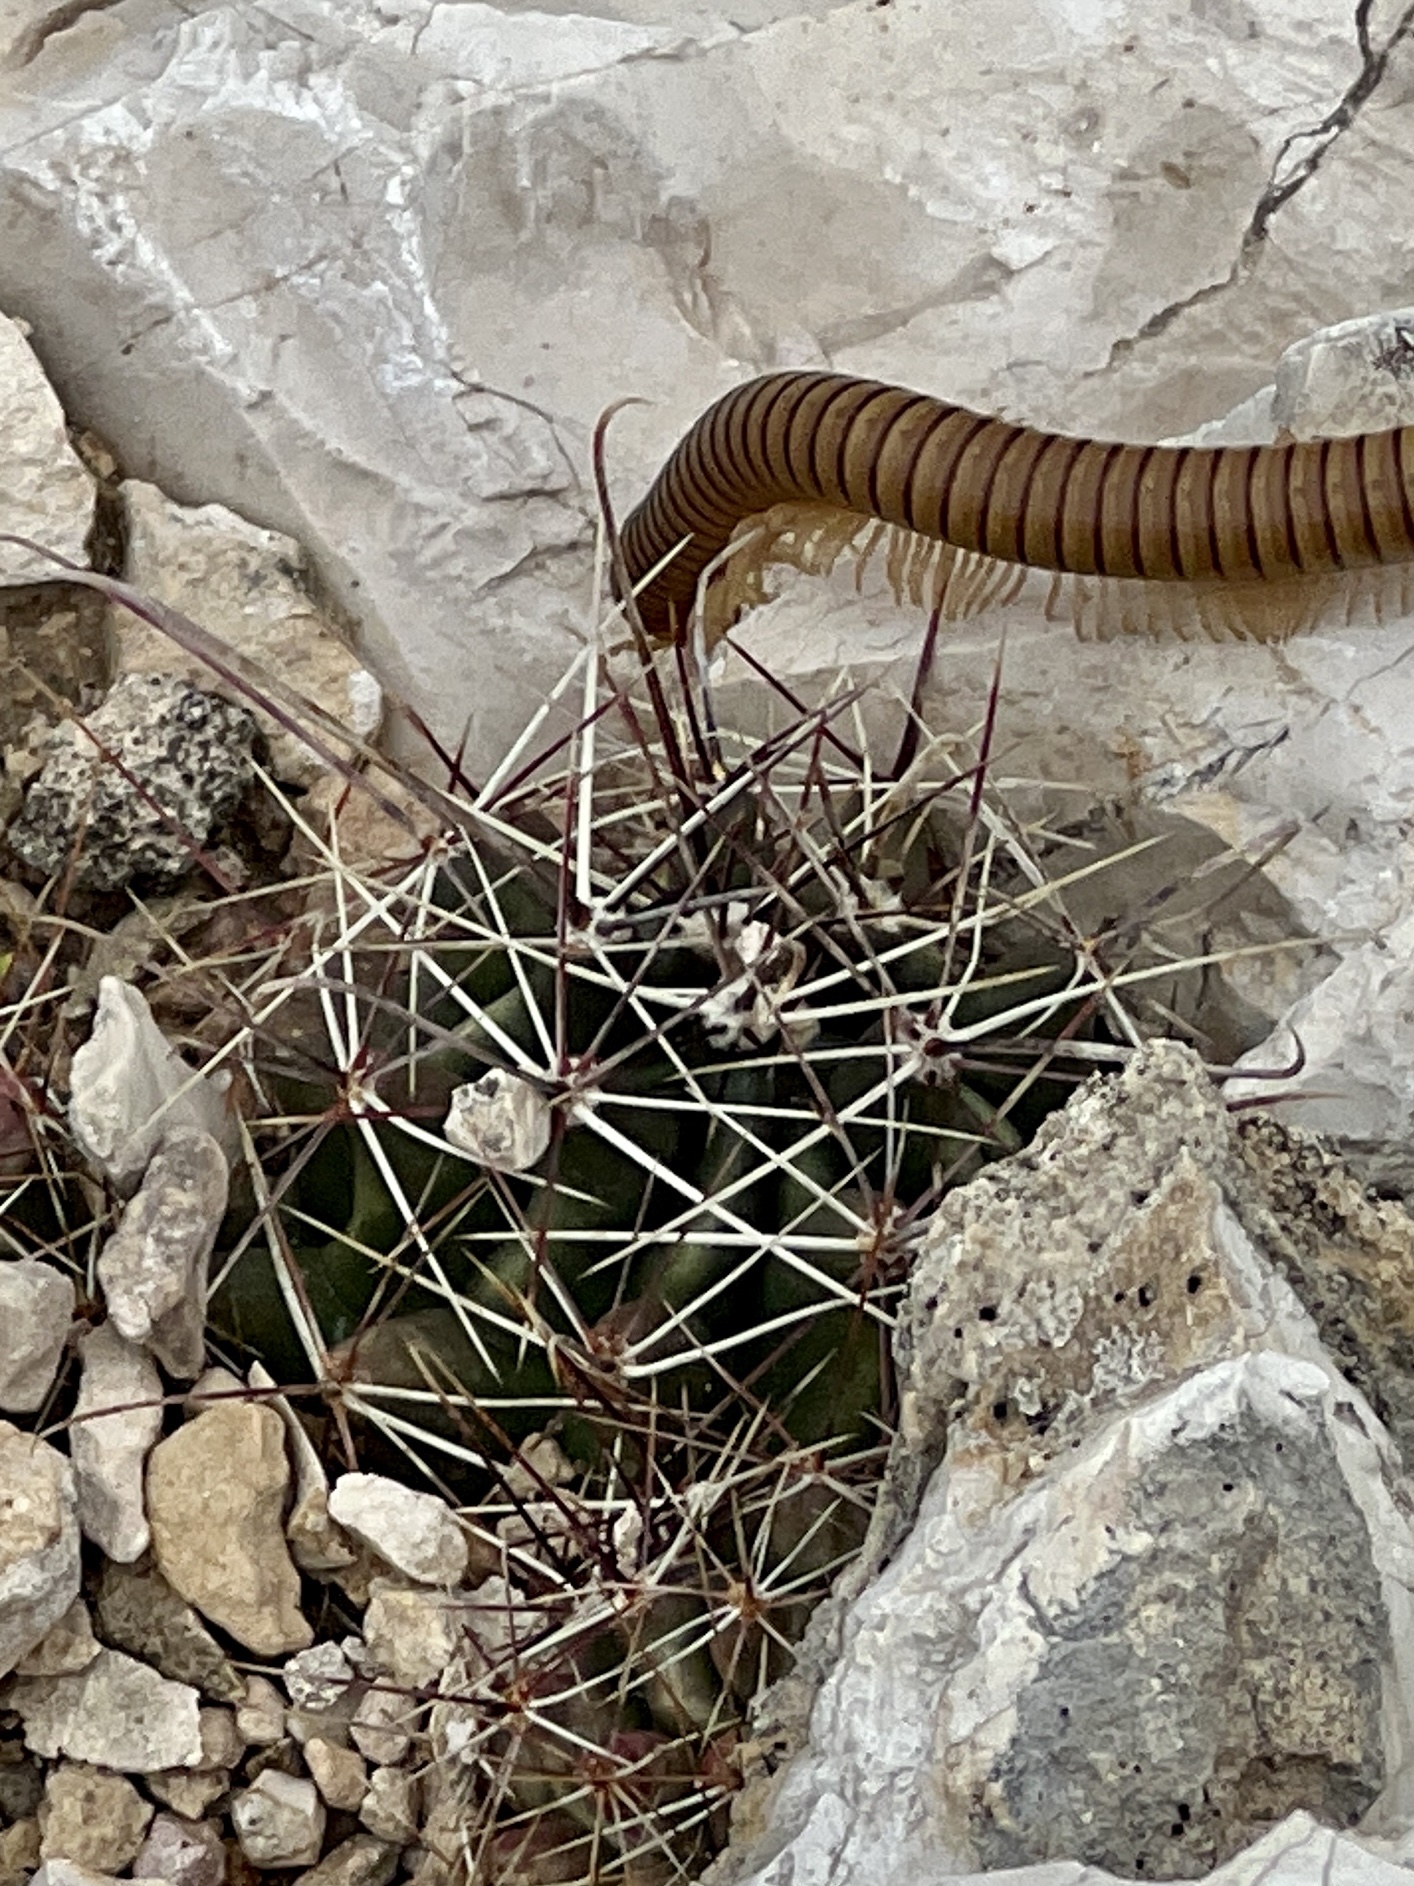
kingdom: Plantae
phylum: Tracheophyta
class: Magnoliopsida
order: Caryophyllales
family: Cactaceae
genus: Bisnaga
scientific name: Bisnaga hamatacantha
